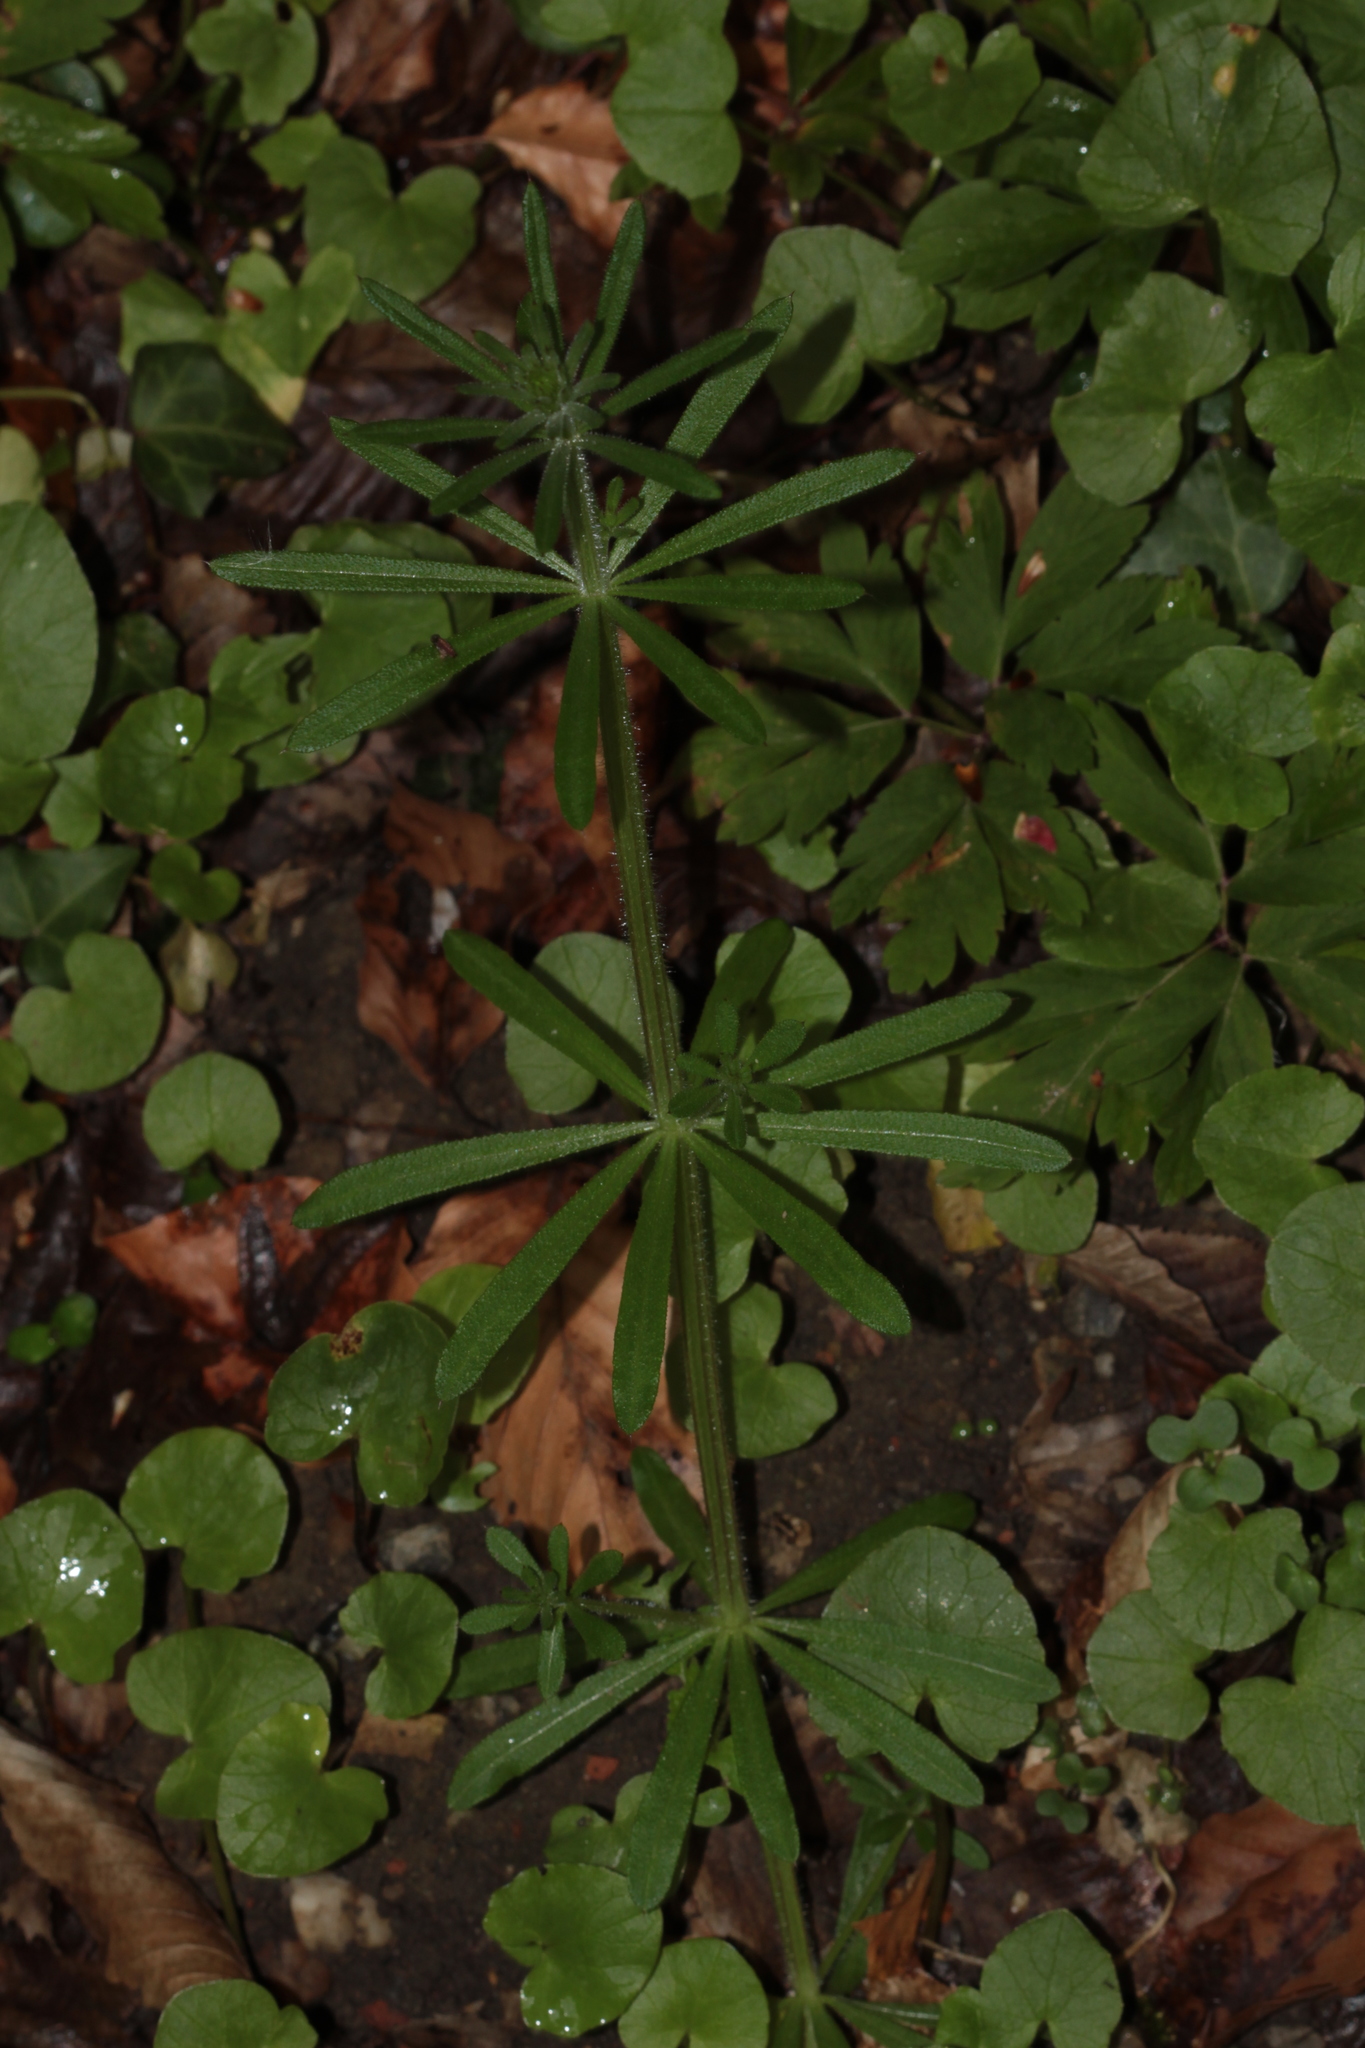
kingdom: Plantae
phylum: Tracheophyta
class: Magnoliopsida
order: Gentianales
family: Rubiaceae
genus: Galium
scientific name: Galium aparine
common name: Cleavers
